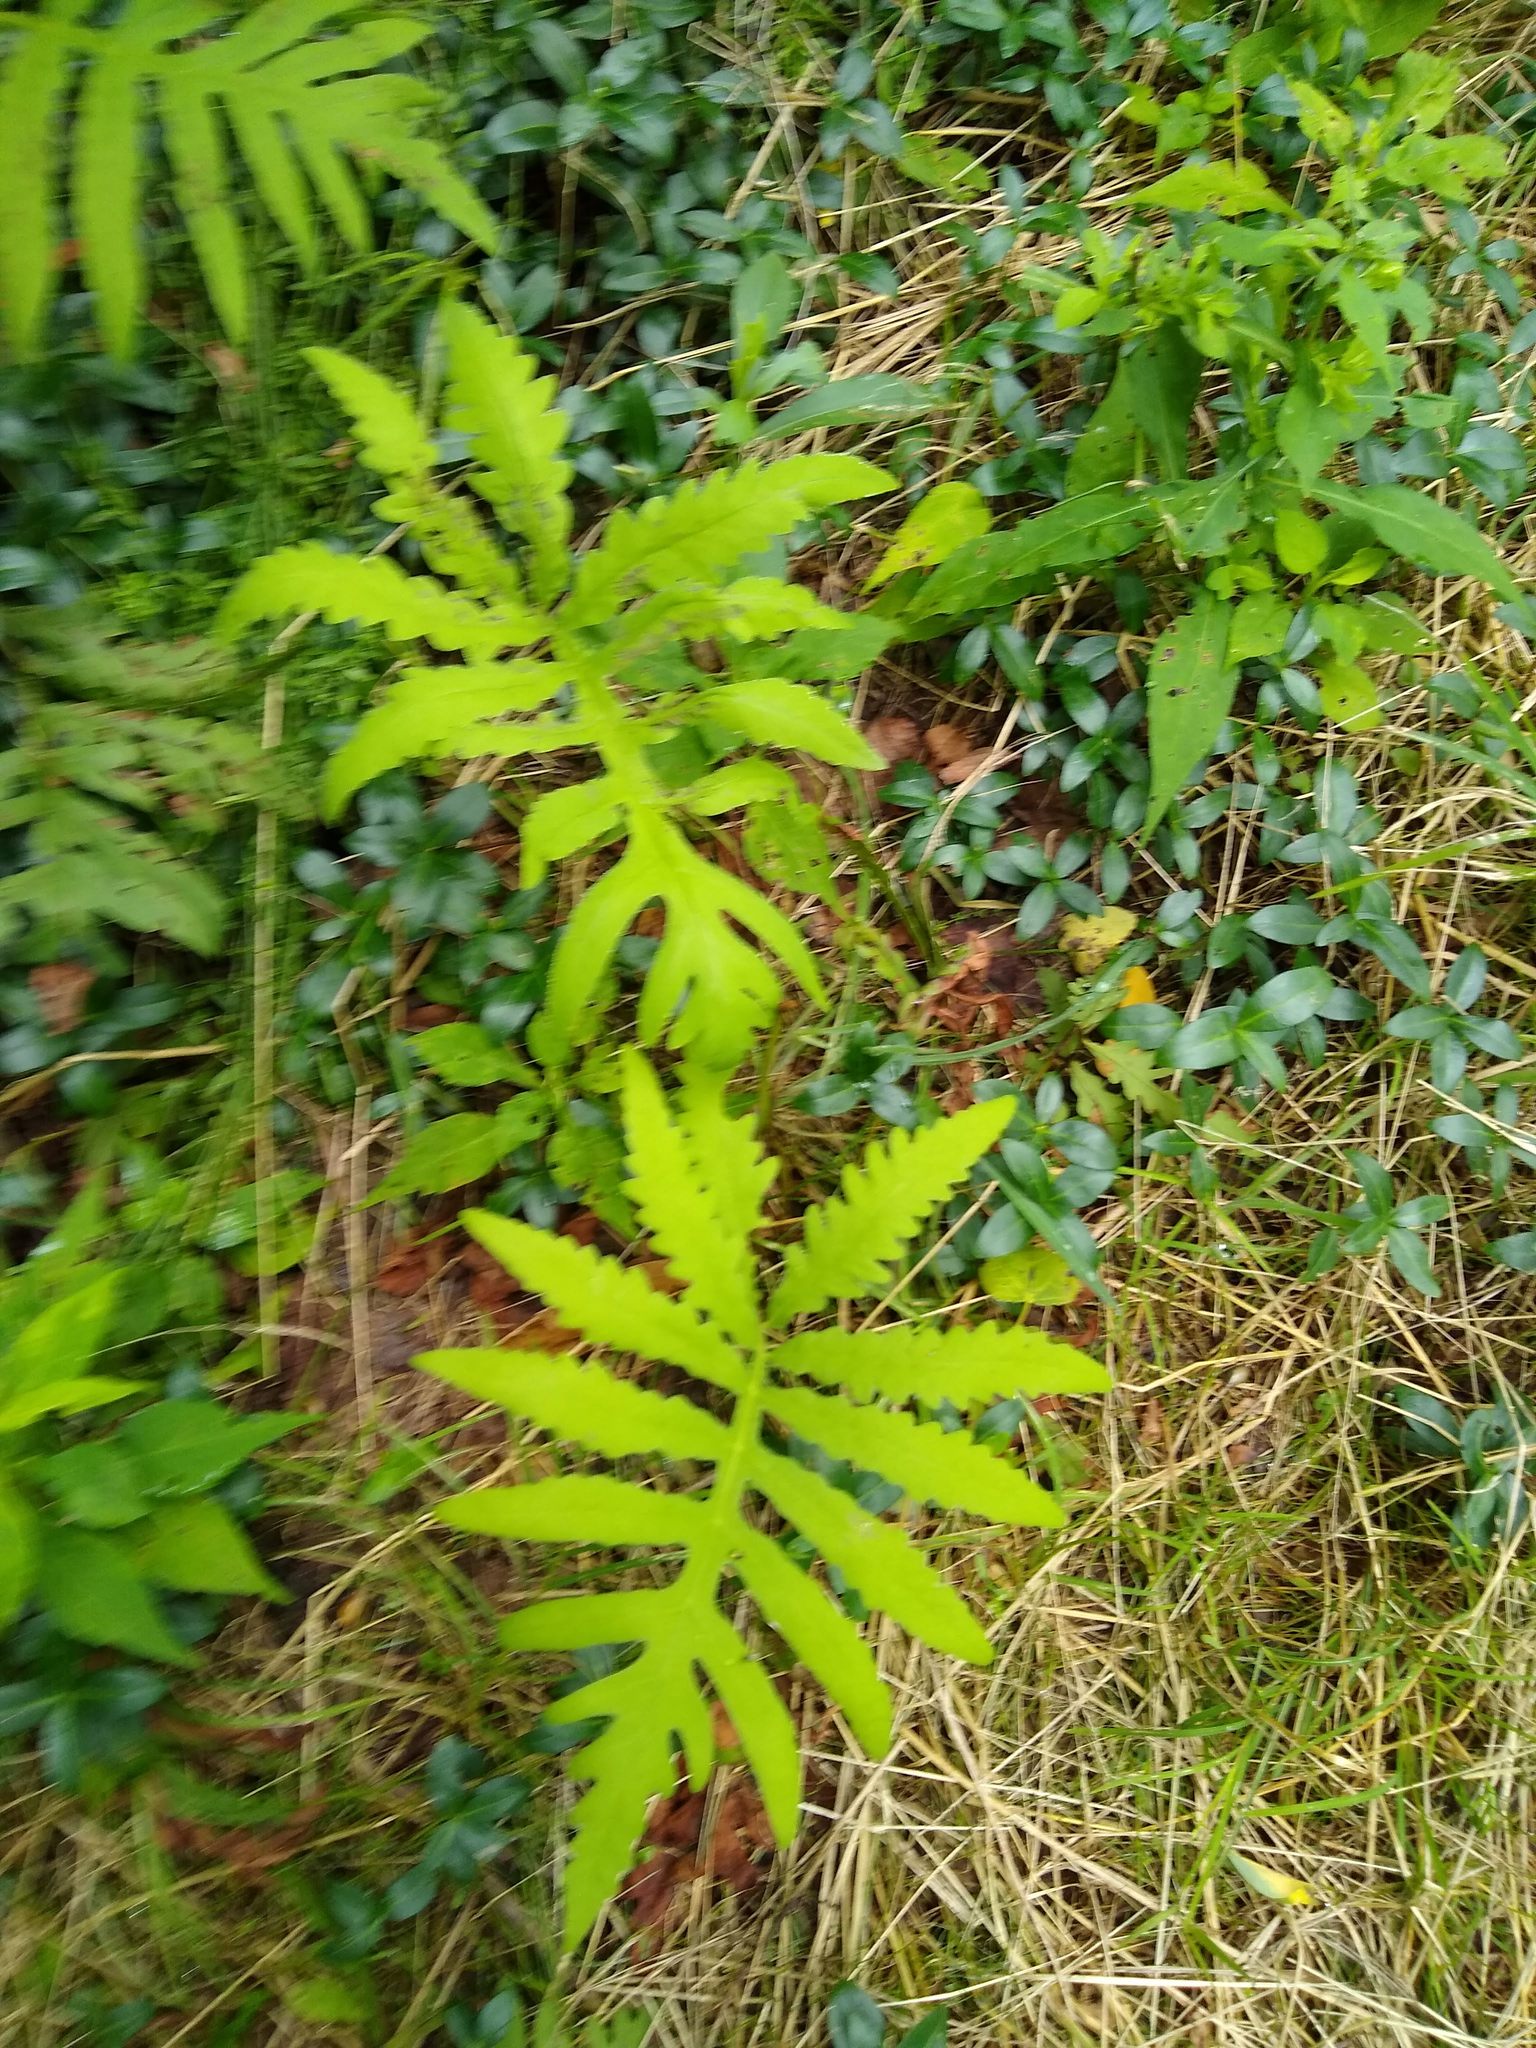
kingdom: Plantae
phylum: Tracheophyta
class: Polypodiopsida
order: Polypodiales
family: Onocleaceae
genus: Onoclea
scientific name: Onoclea sensibilis
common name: Sensitive fern
